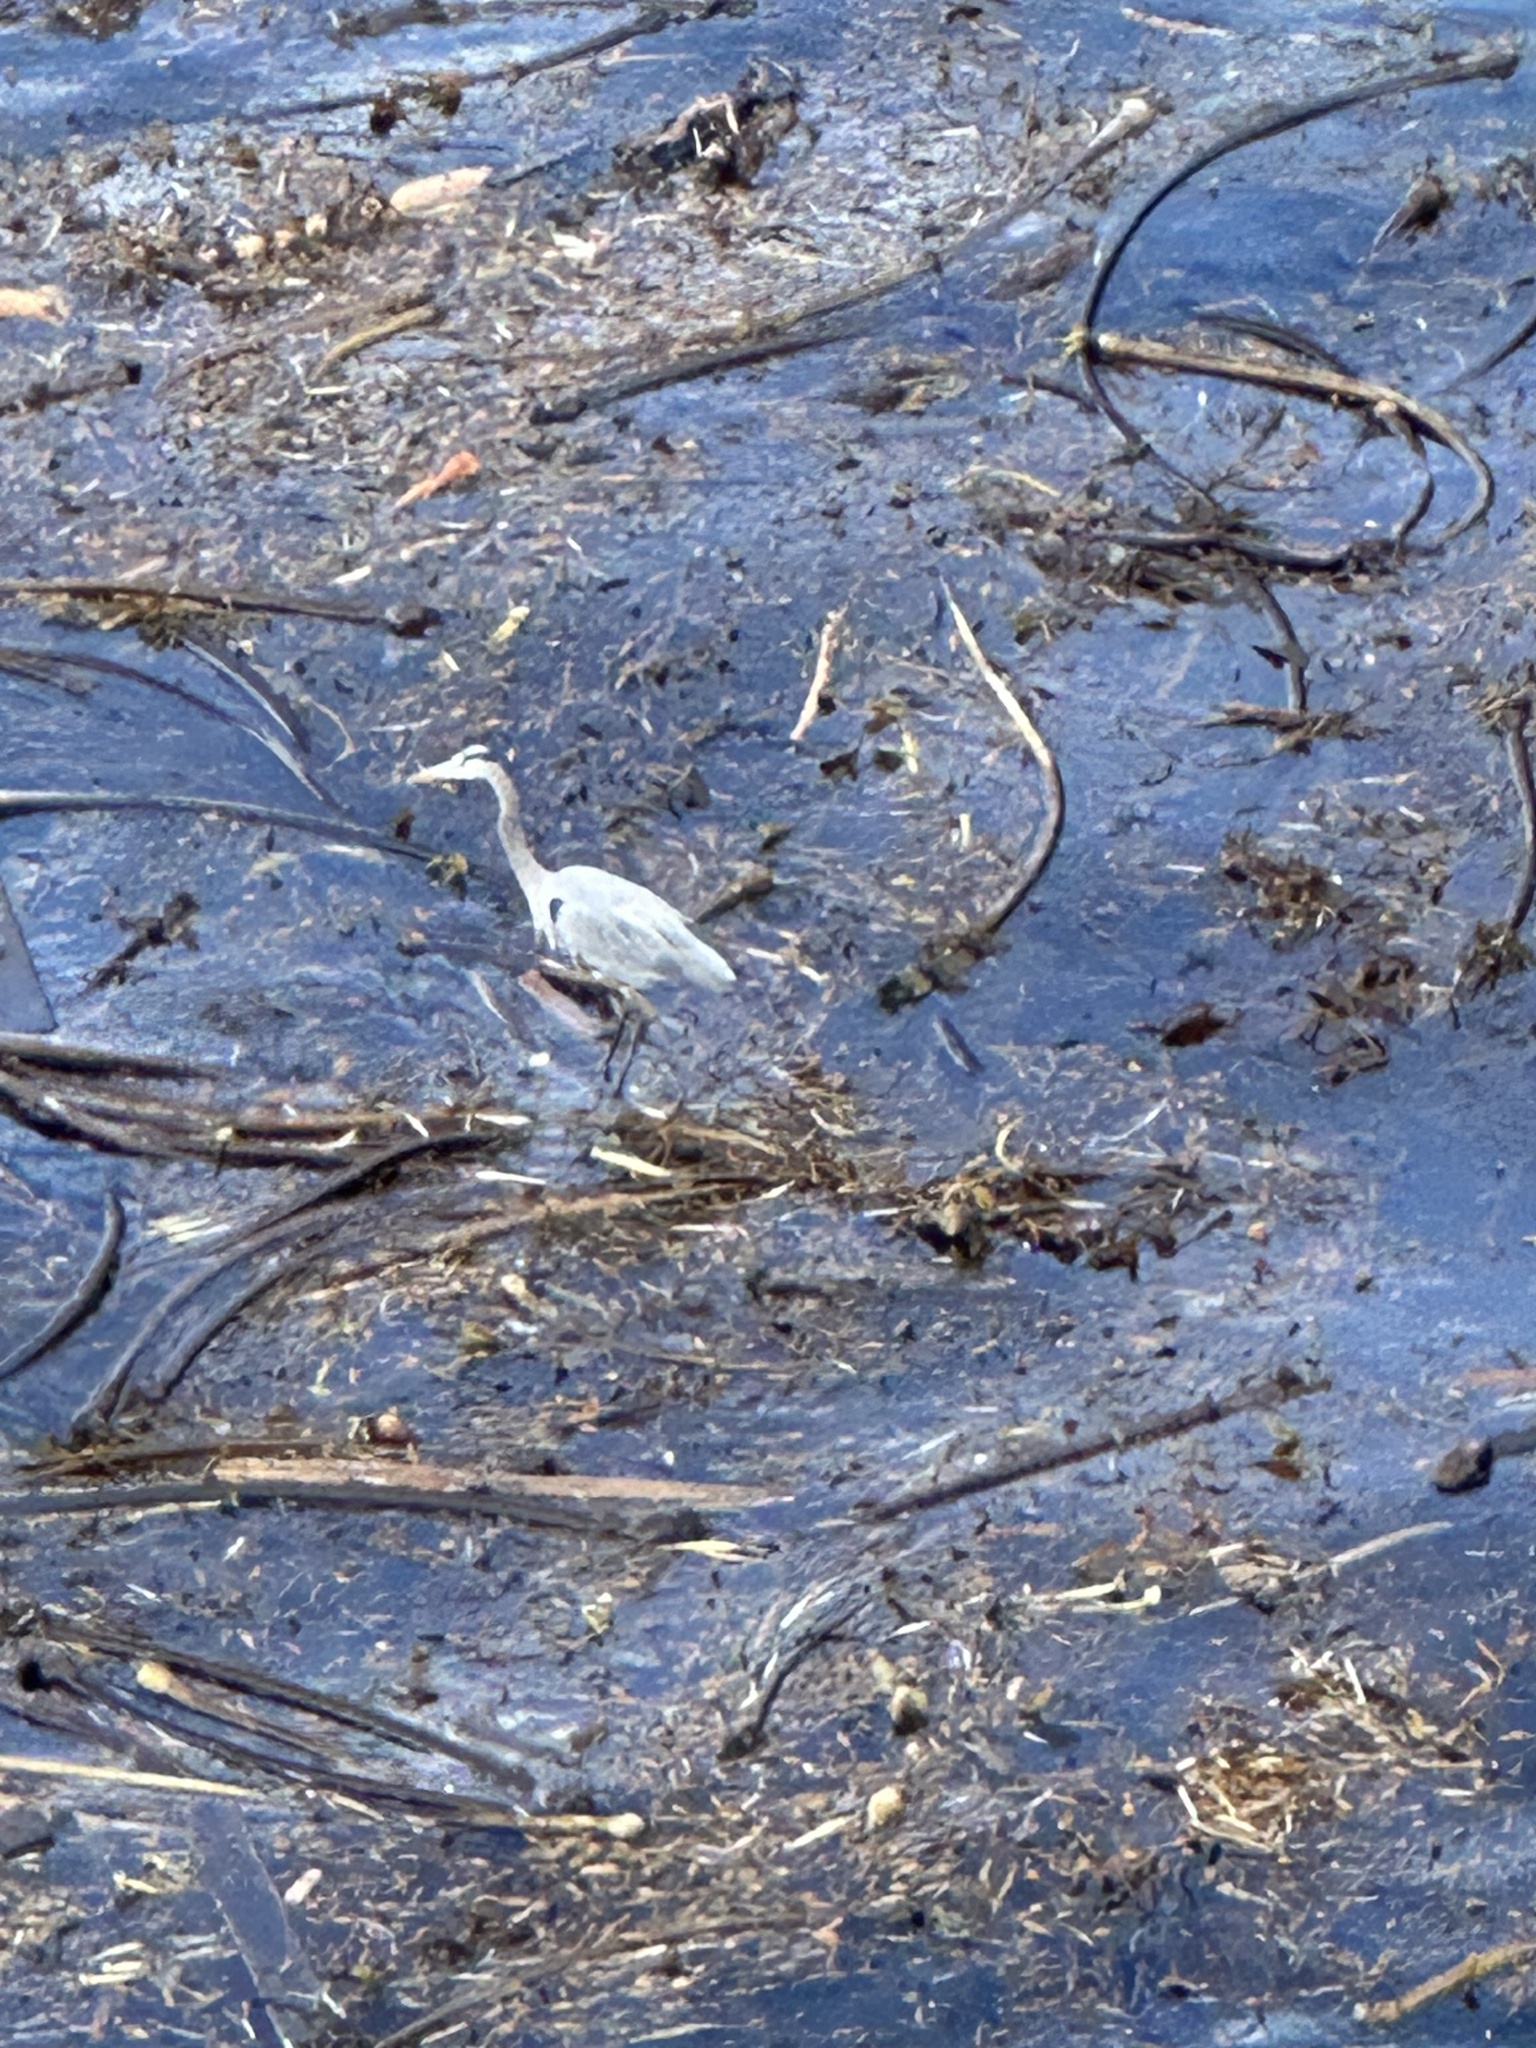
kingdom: Animalia
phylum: Chordata
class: Aves
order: Pelecaniformes
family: Ardeidae
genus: Ardea
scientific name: Ardea herodias
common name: Great blue heron
